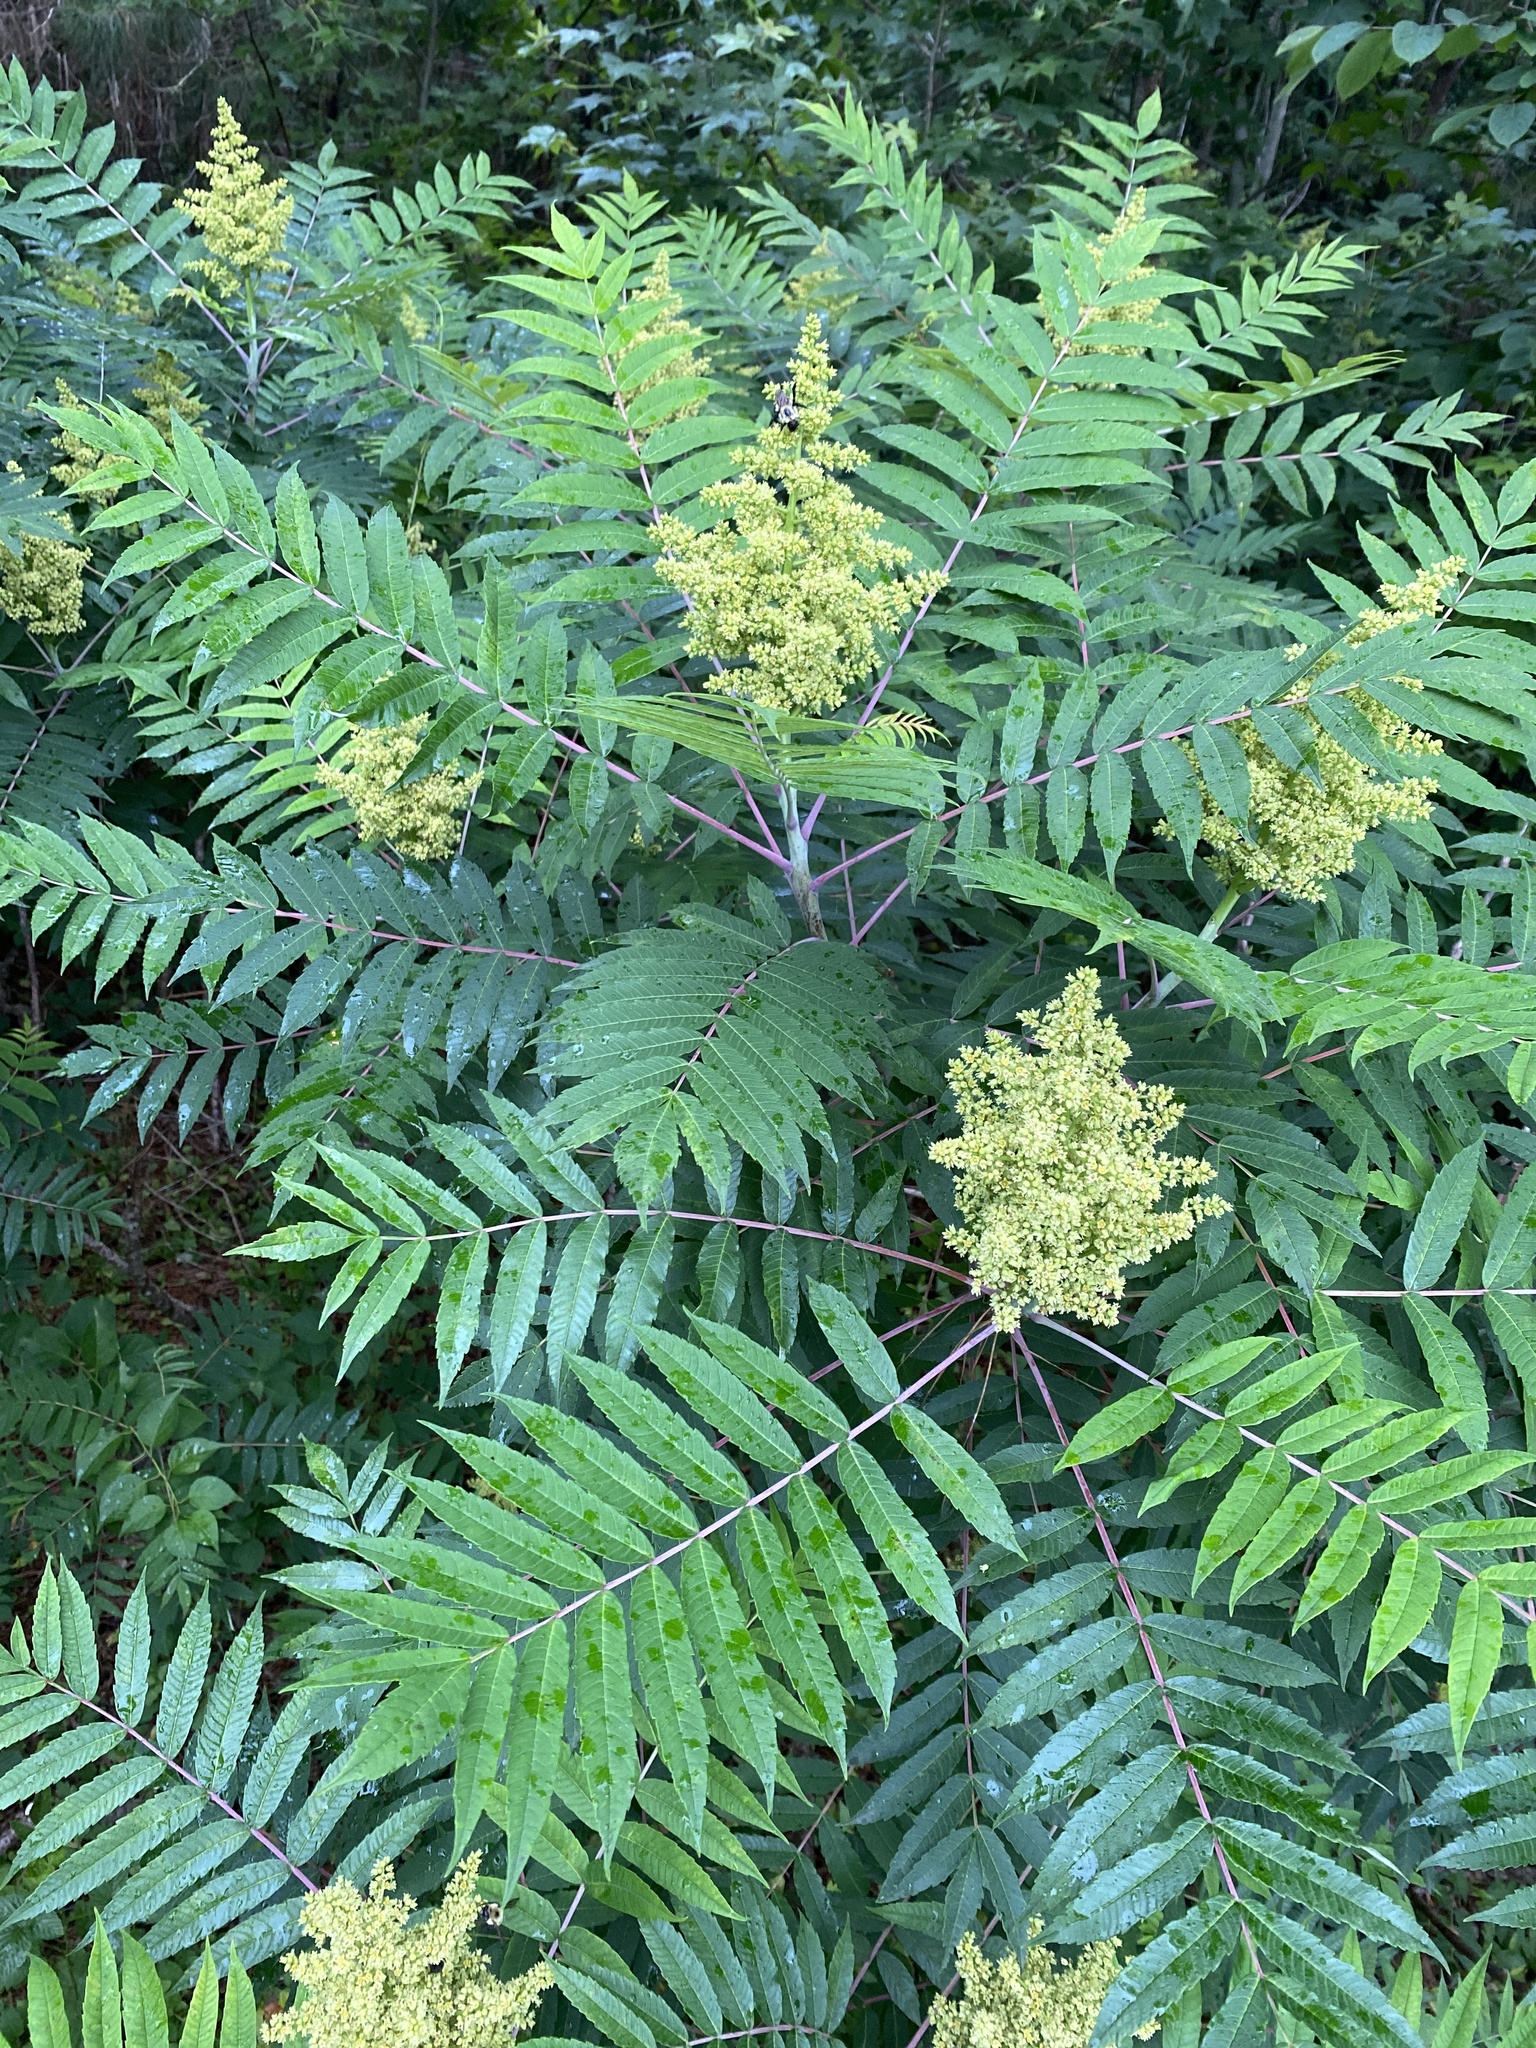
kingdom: Plantae
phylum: Tracheophyta
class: Magnoliopsida
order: Sapindales
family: Anacardiaceae
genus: Rhus
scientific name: Rhus glabra
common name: Scarlet sumac
